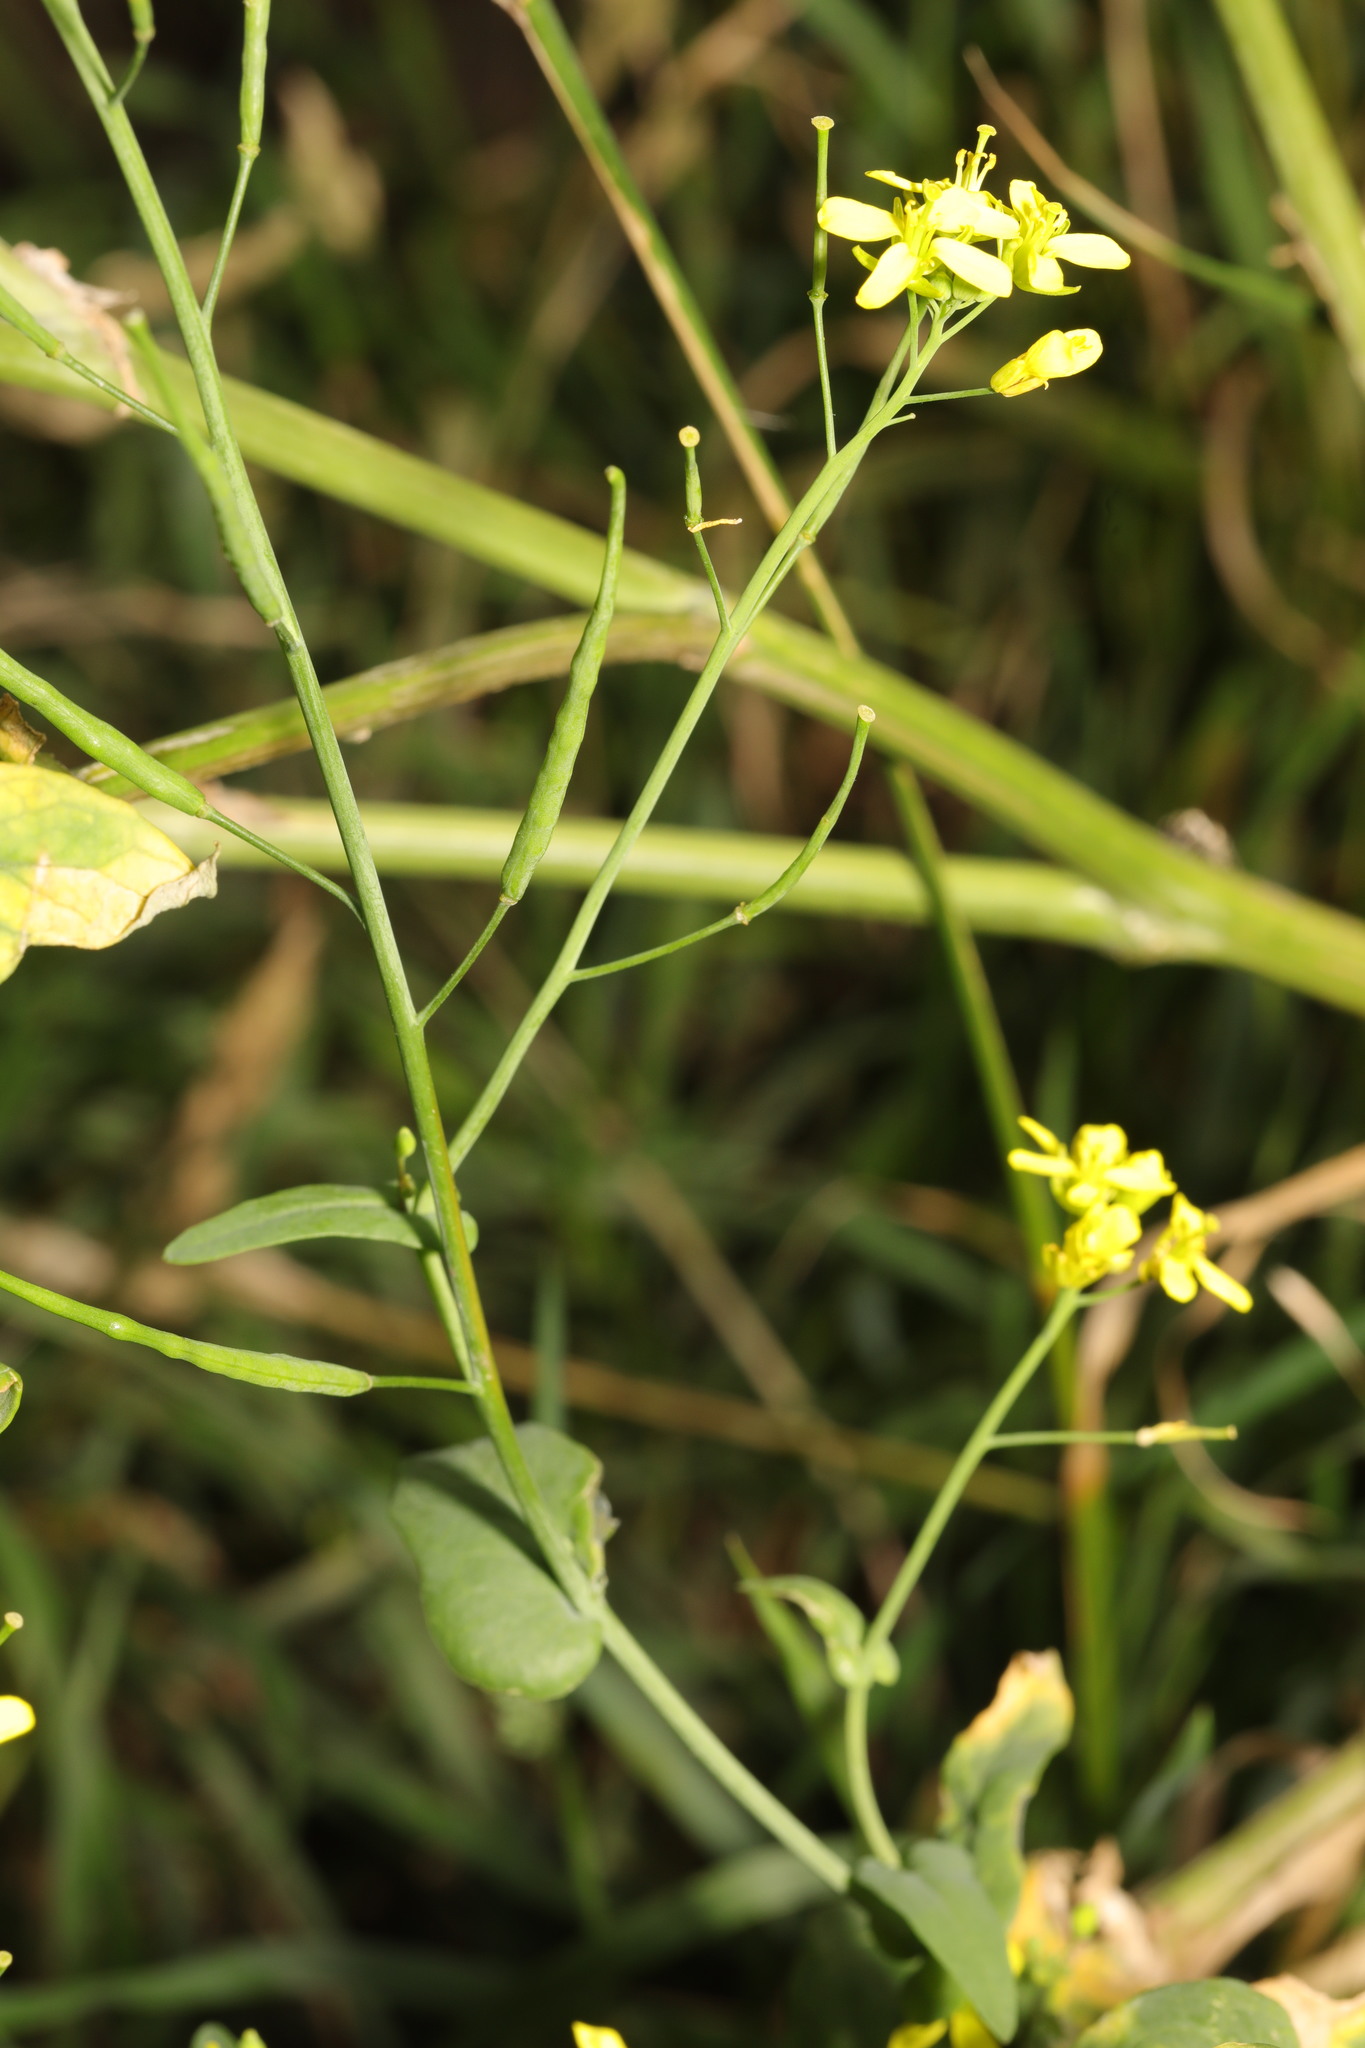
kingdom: Plantae
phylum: Tracheophyta
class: Magnoliopsida
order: Brassicales
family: Brassicaceae
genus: Brassica
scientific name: Brassica rapa
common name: Field mustard
